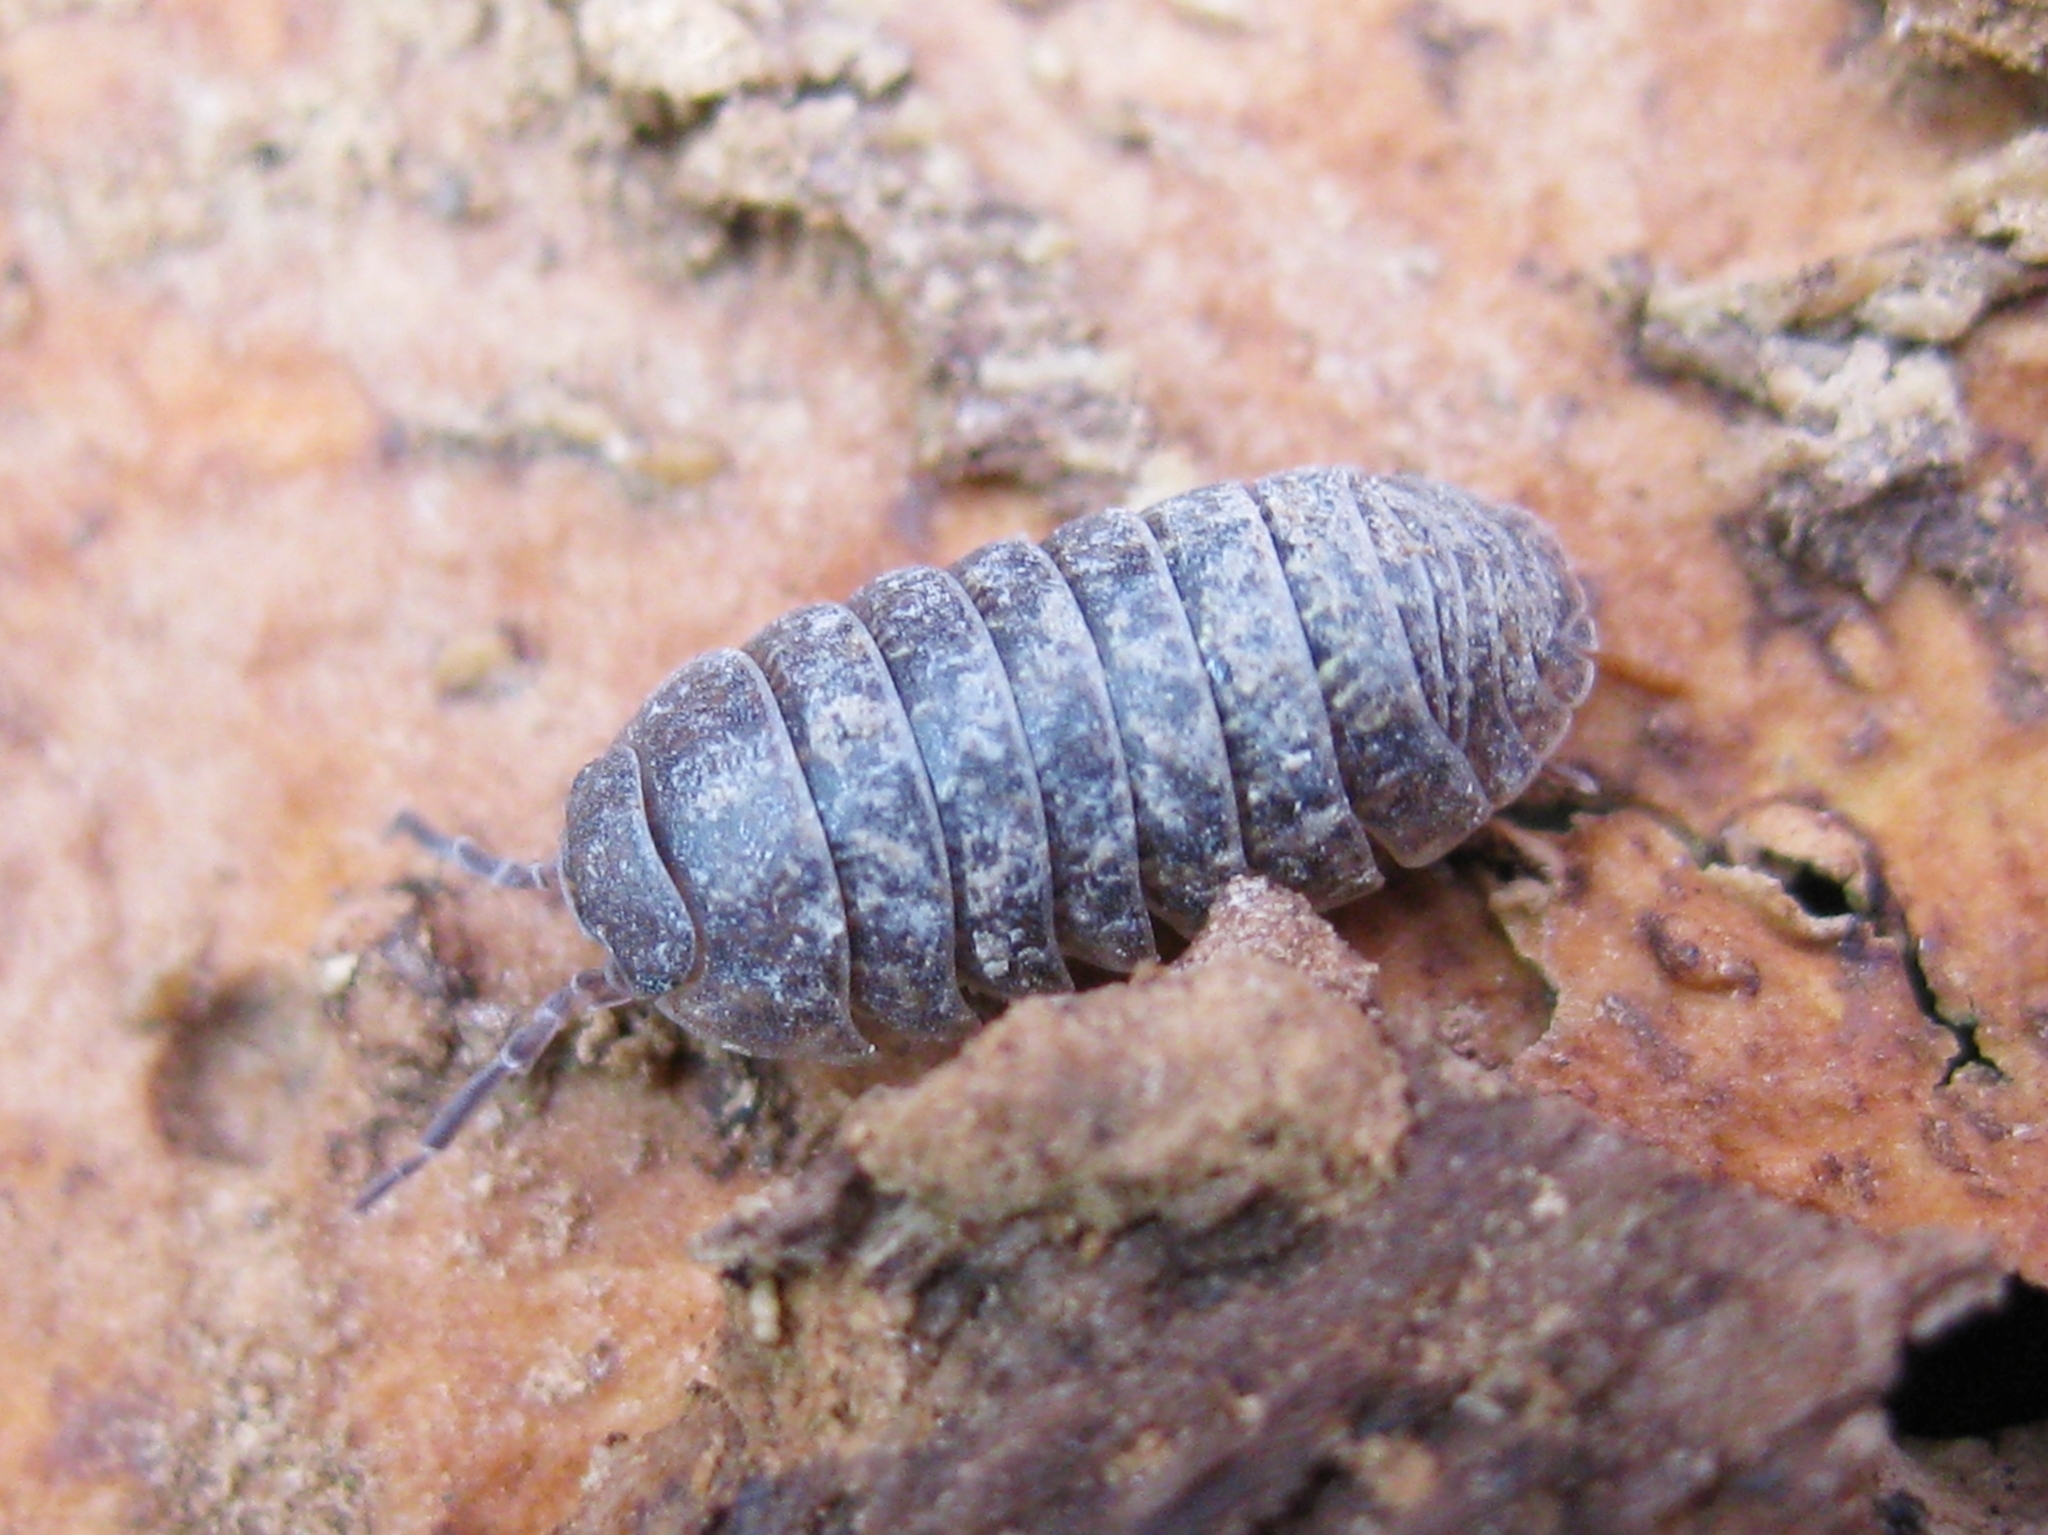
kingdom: Animalia
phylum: Arthropoda
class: Malacostraca
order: Isopoda
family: Armadillidiidae
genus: Armadillidium
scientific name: Armadillidium
